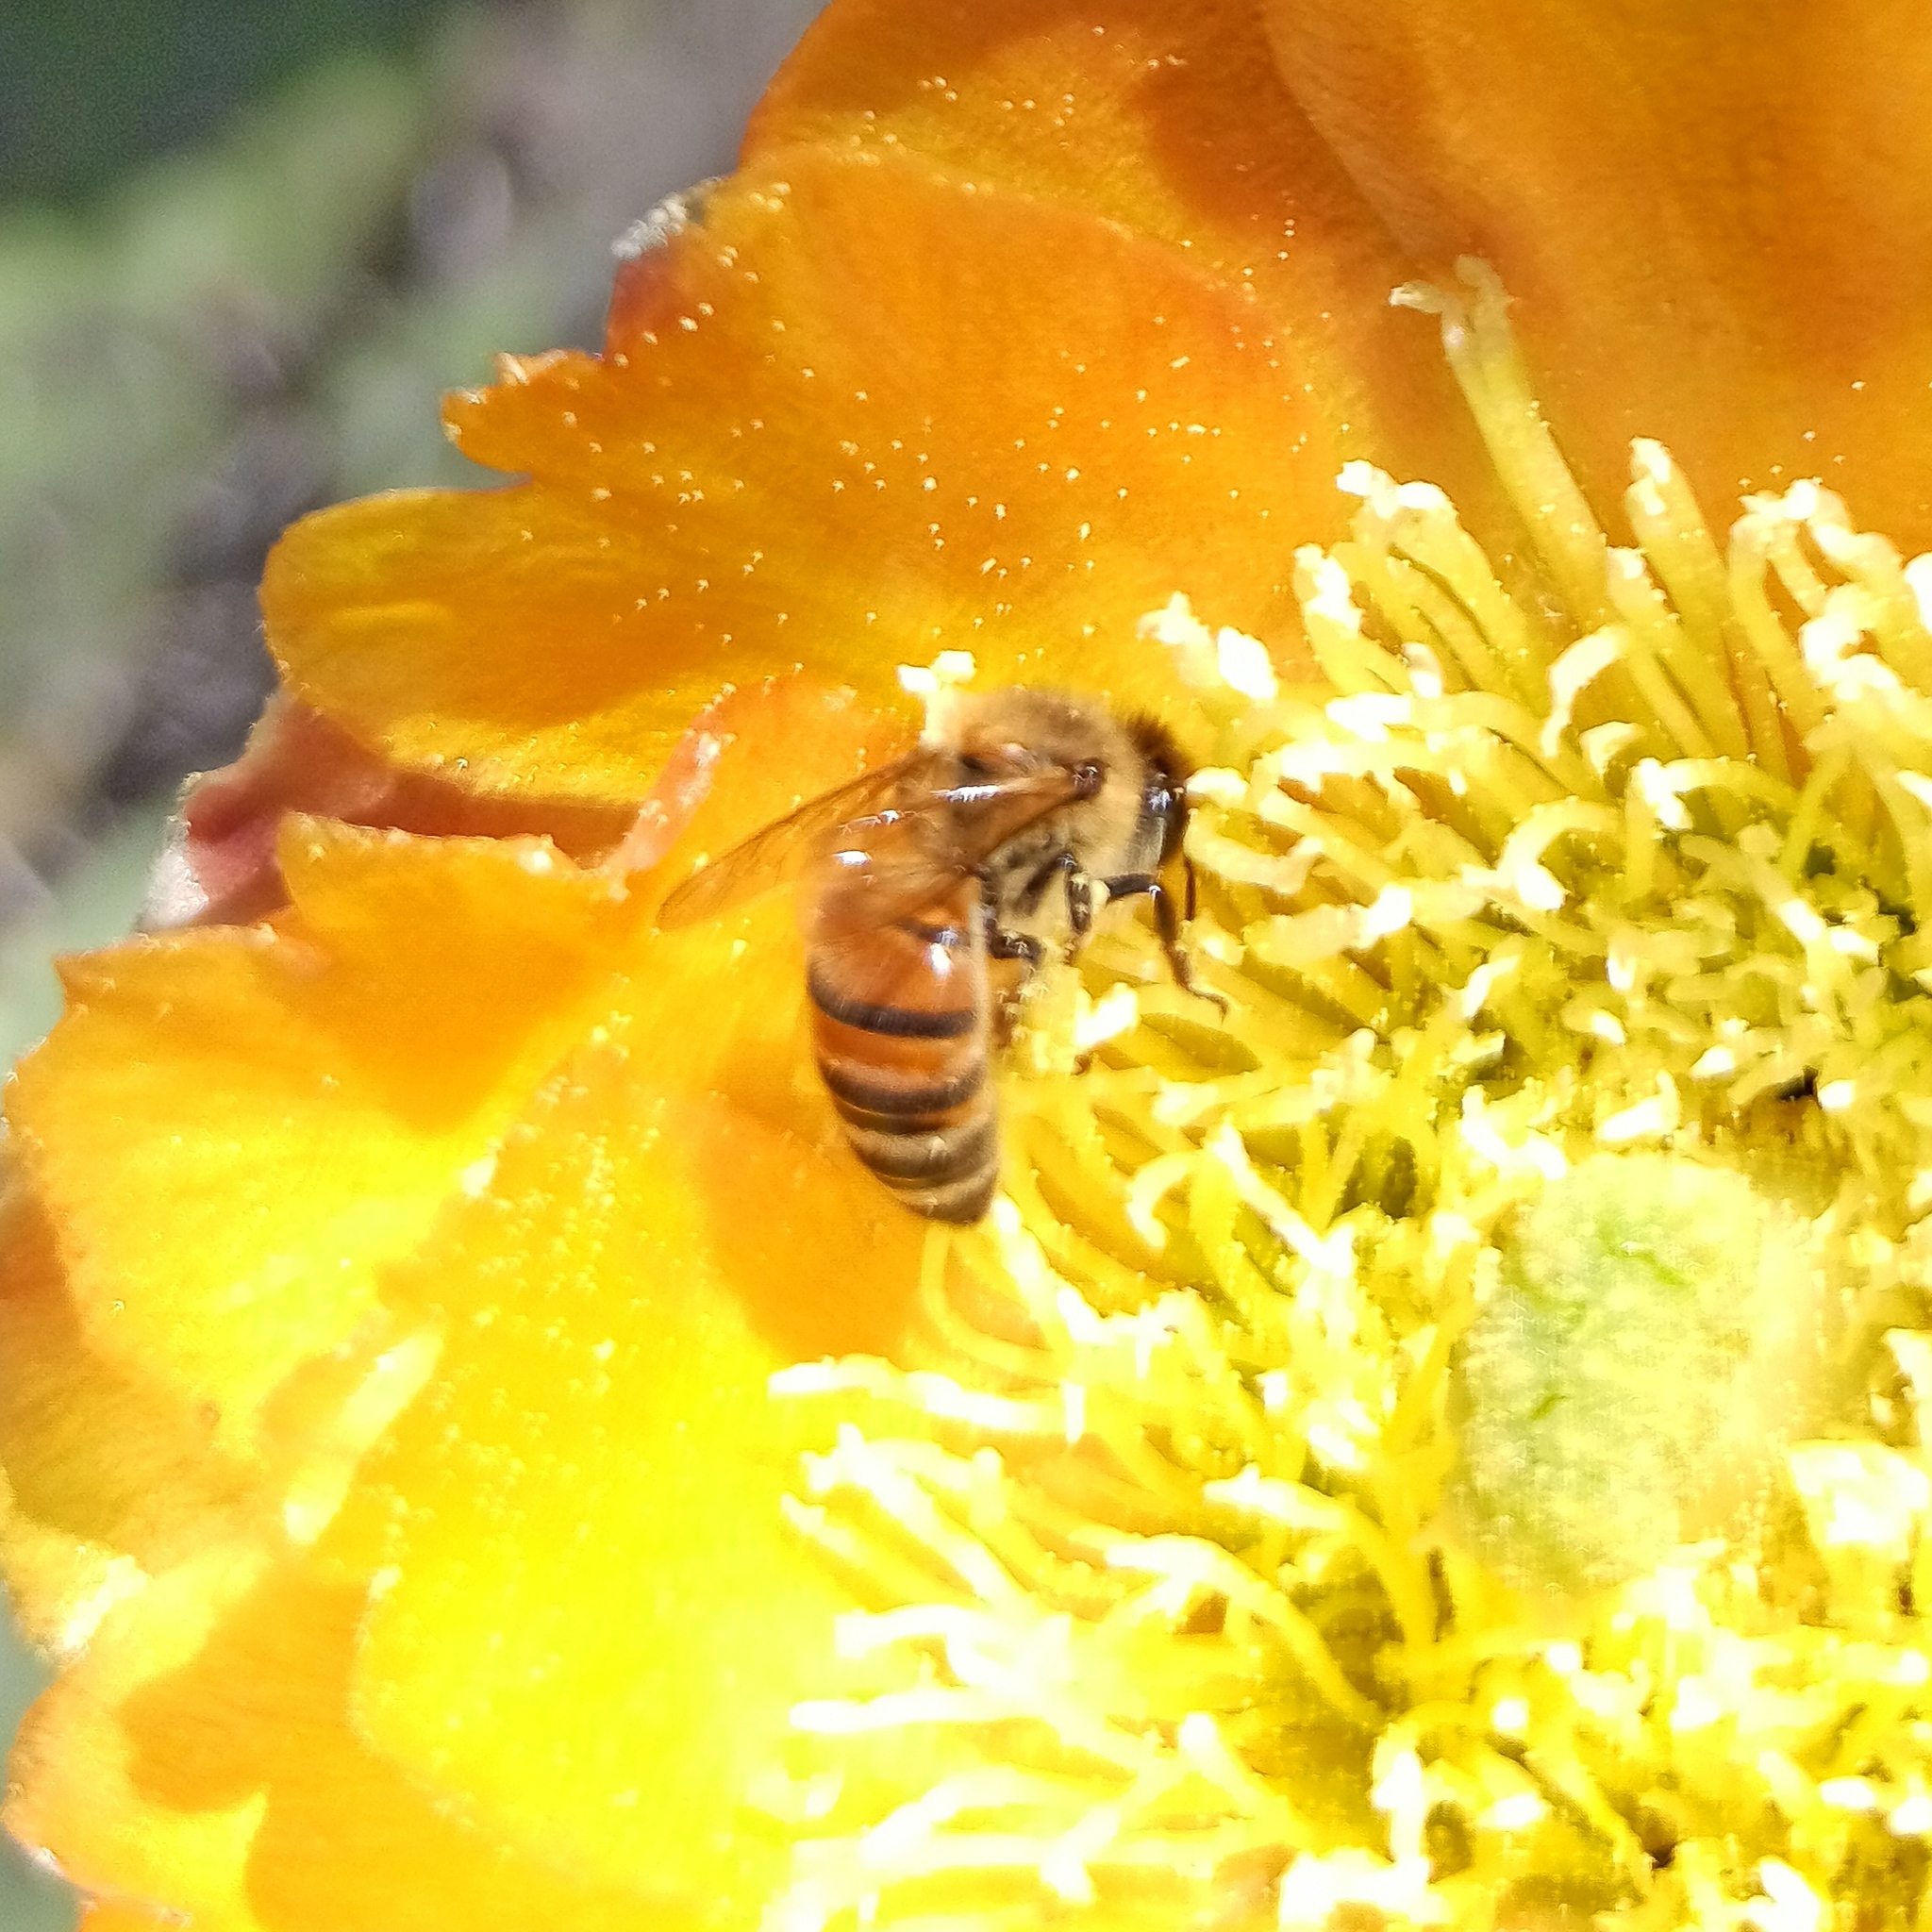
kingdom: Animalia
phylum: Arthropoda
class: Insecta
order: Hymenoptera
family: Apidae
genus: Apis
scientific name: Apis mellifera
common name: Honey bee
